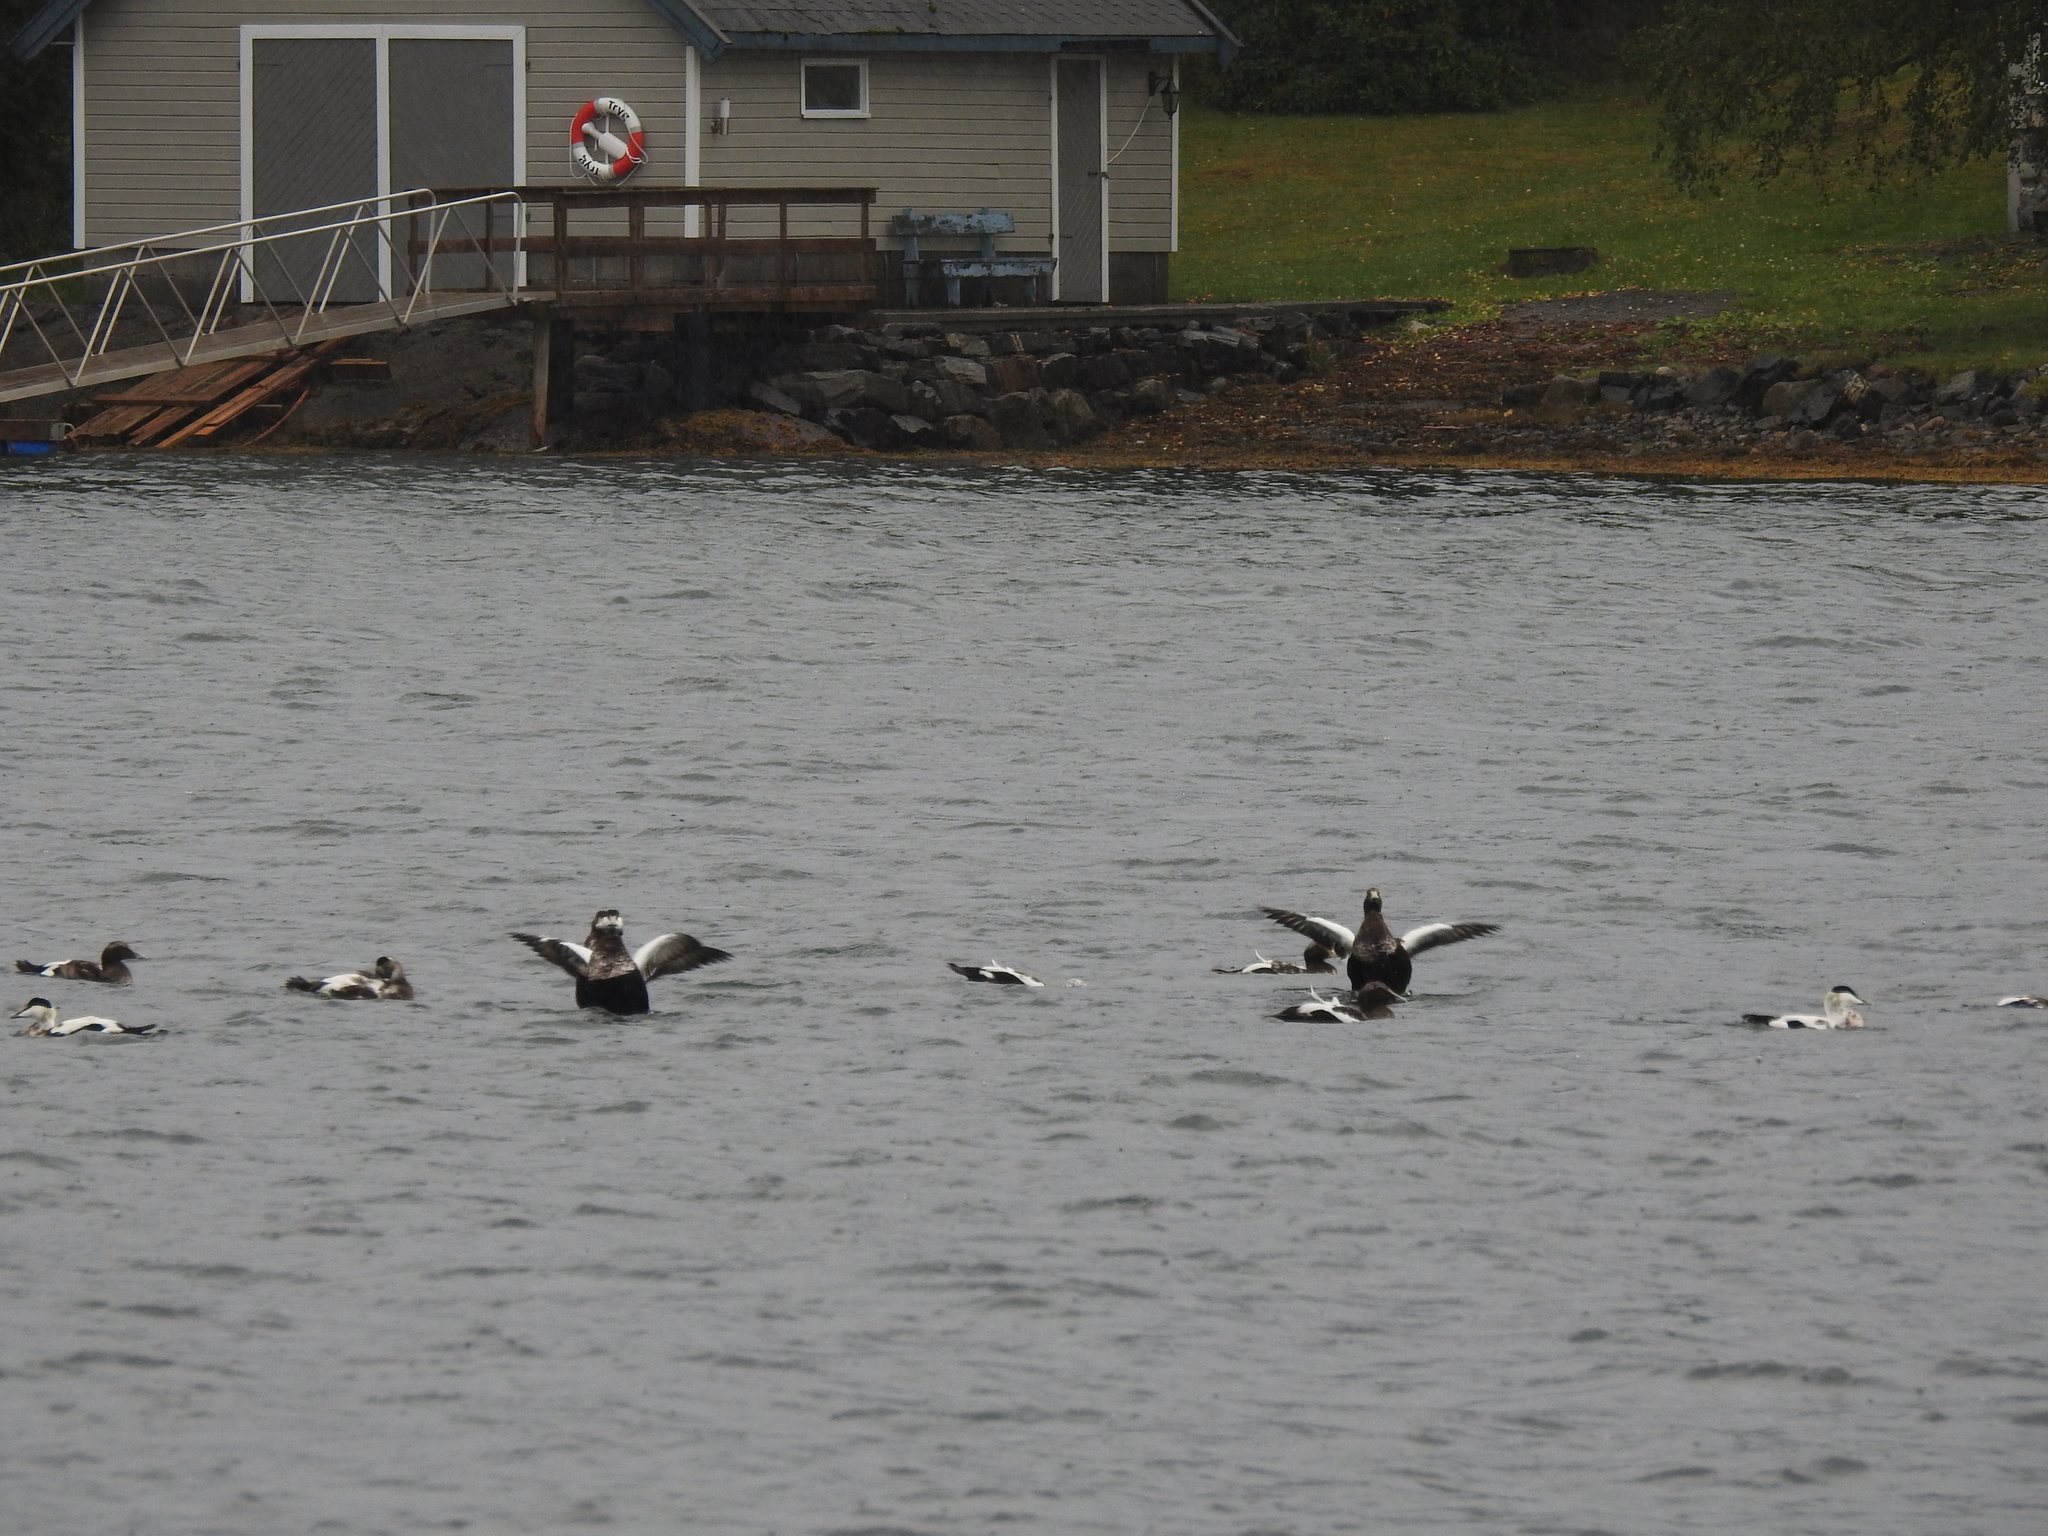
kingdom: Animalia
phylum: Chordata
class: Aves
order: Anseriformes
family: Anatidae
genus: Somateria
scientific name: Somateria mollissima
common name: Common eider
